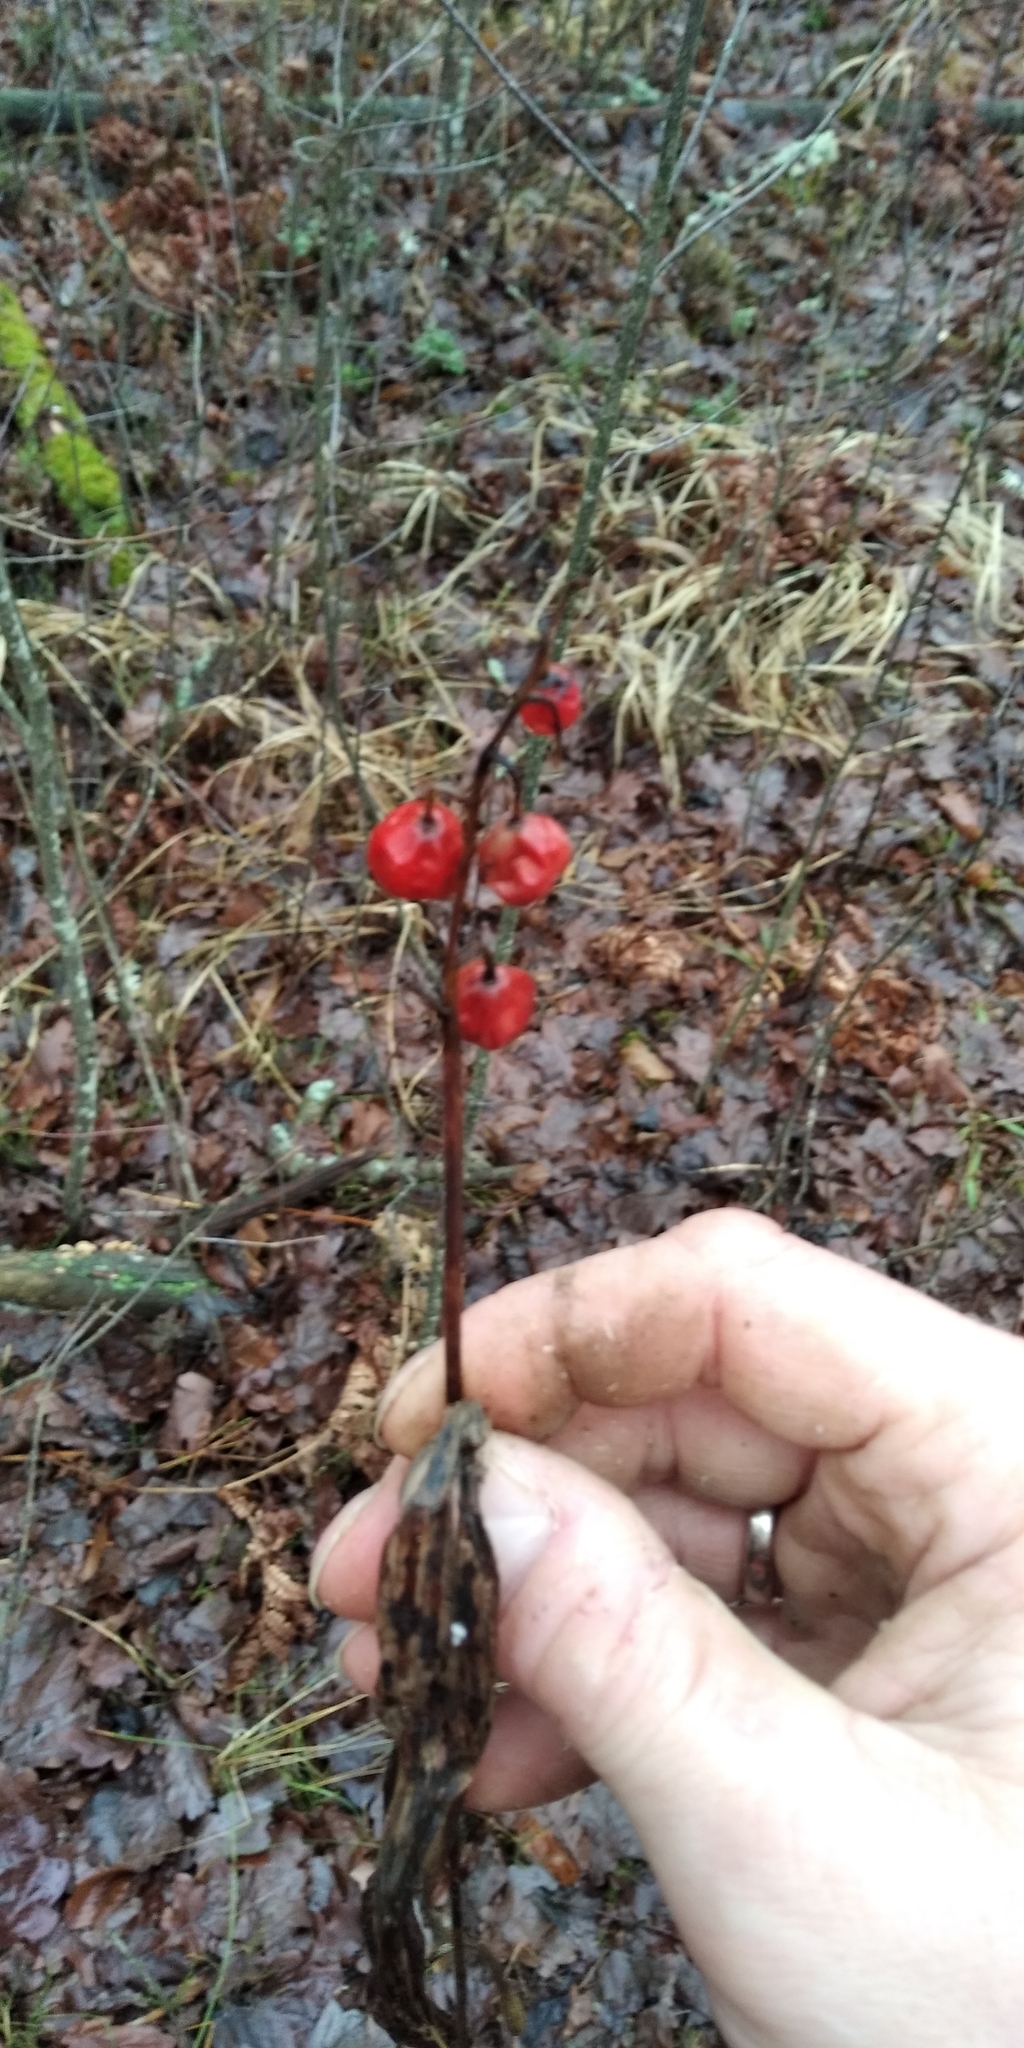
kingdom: Plantae
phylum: Tracheophyta
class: Liliopsida
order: Asparagales
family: Asparagaceae
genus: Convallaria
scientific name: Convallaria majalis
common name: Lily-of-the-valley
